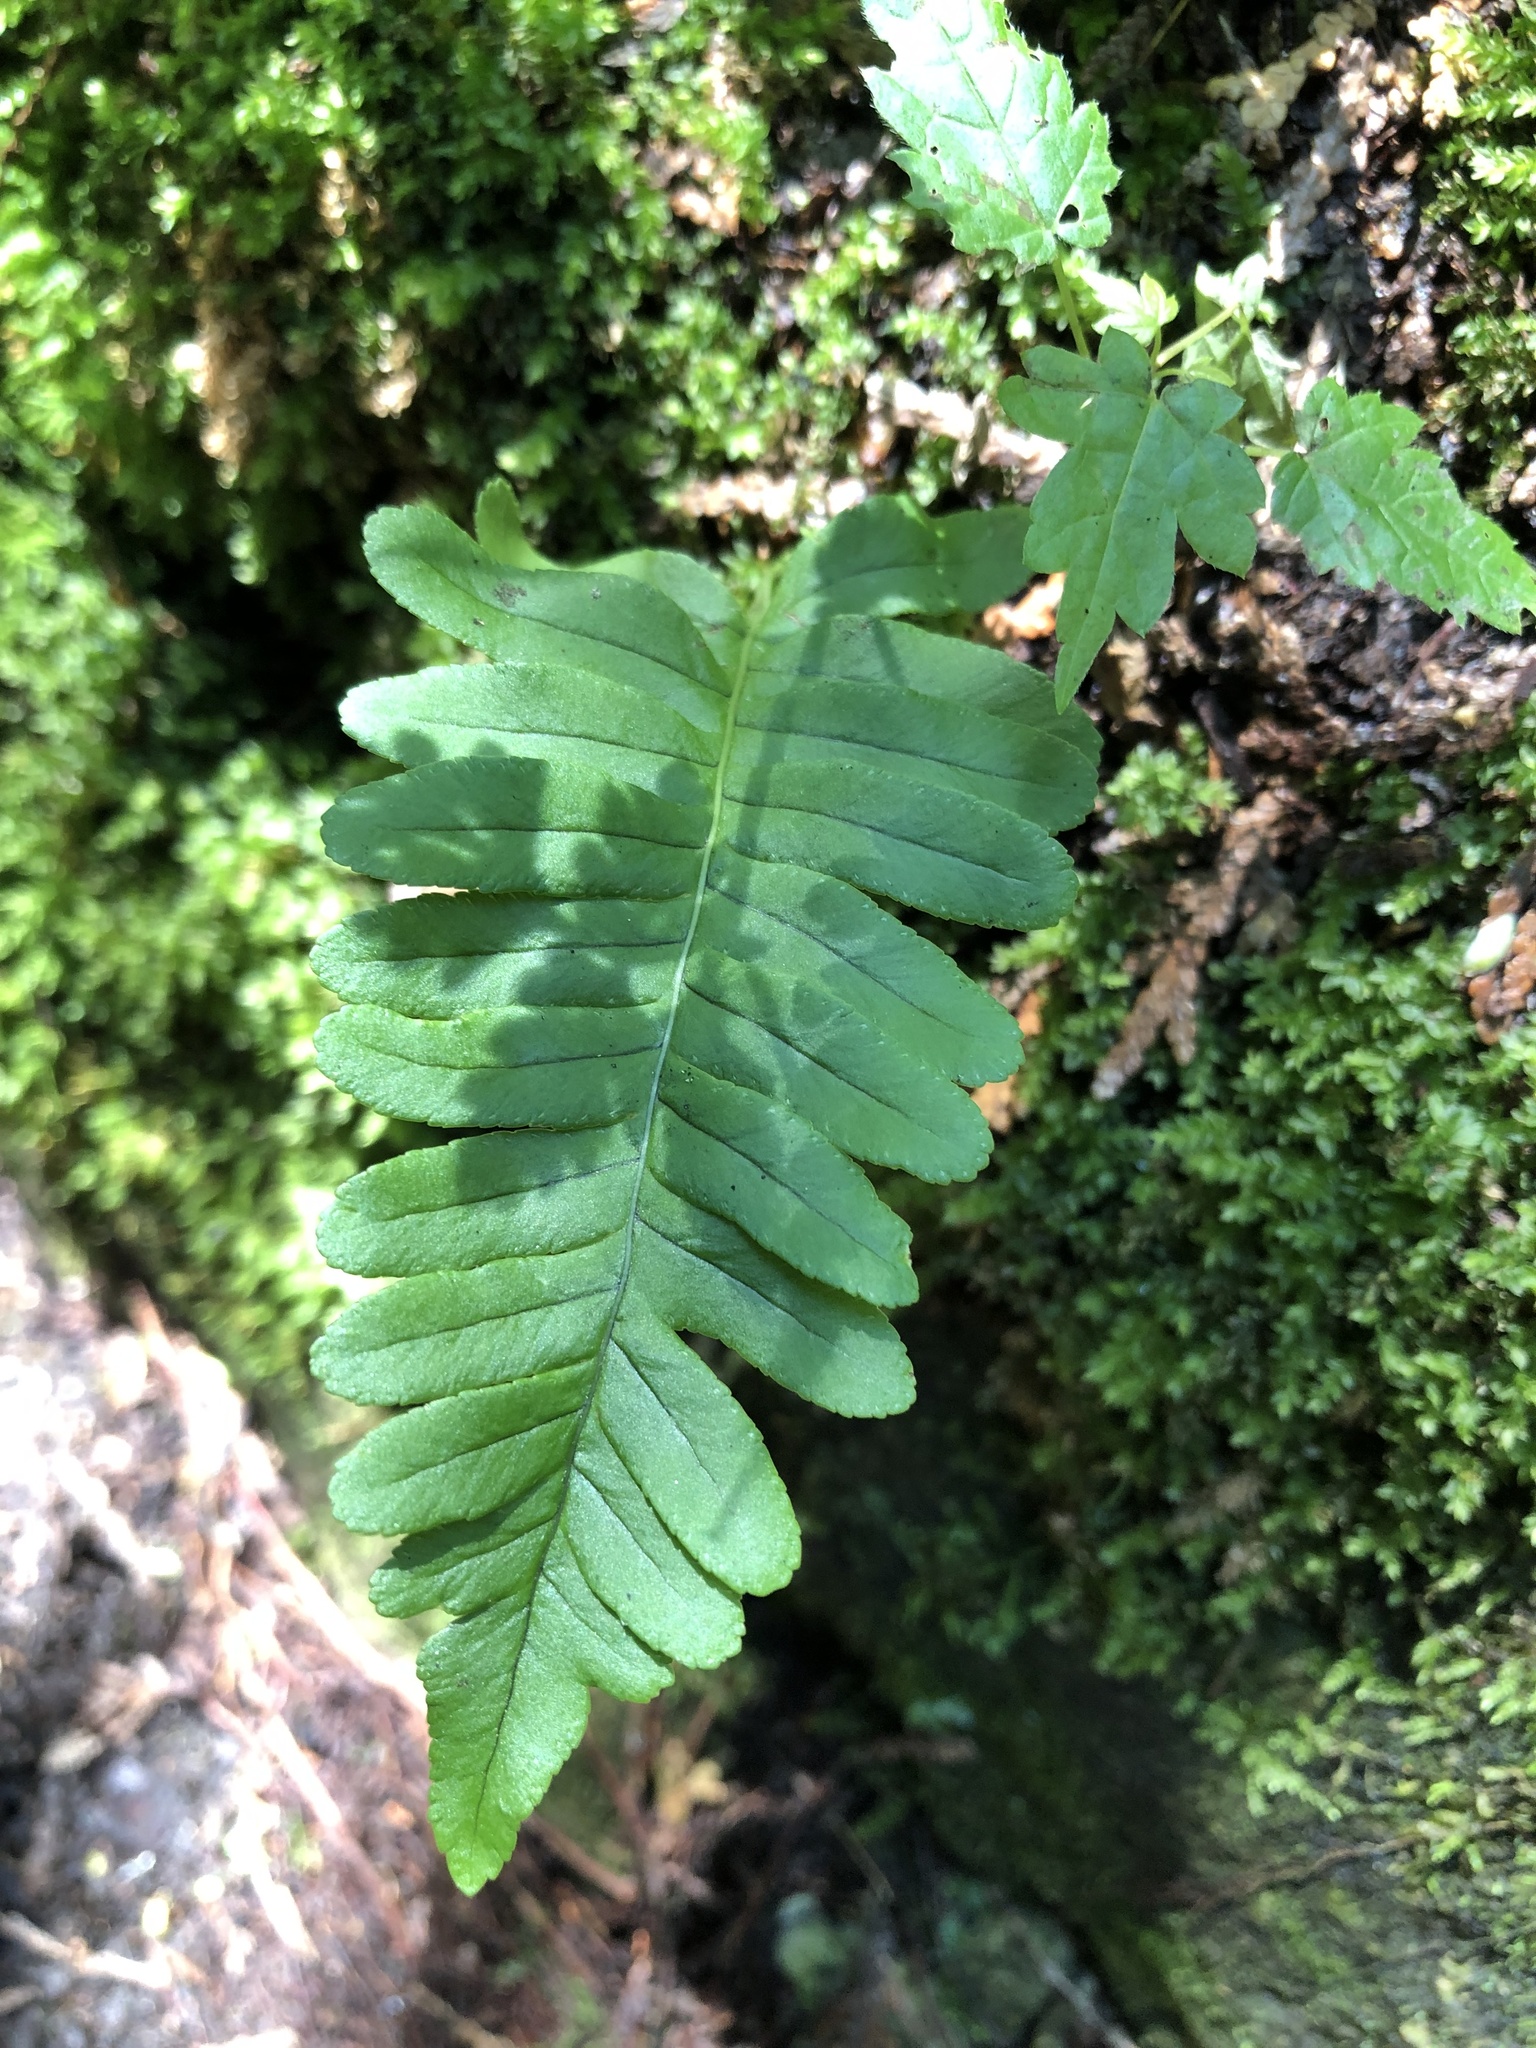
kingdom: Plantae
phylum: Tracheophyta
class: Polypodiopsida
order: Polypodiales
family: Polypodiaceae
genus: Polypodium
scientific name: Polypodium virginianum
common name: American wall fern
